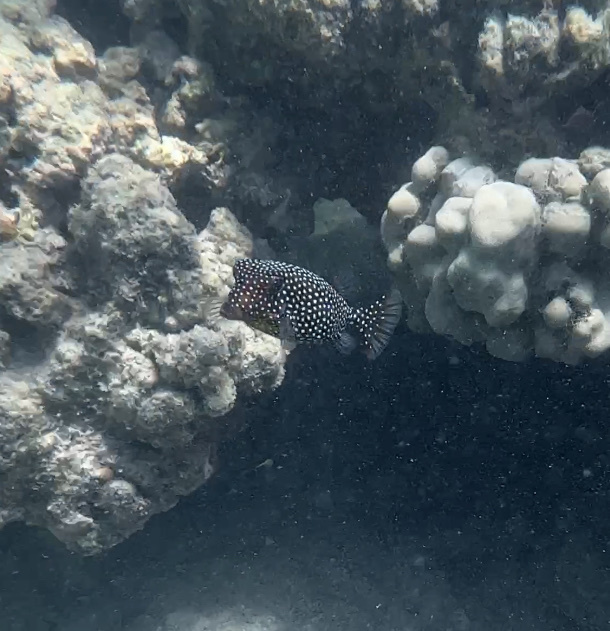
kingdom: Animalia
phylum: Chordata
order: Tetraodontiformes
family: Ostraciidae
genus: Ostracion
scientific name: Ostracion meleagris
